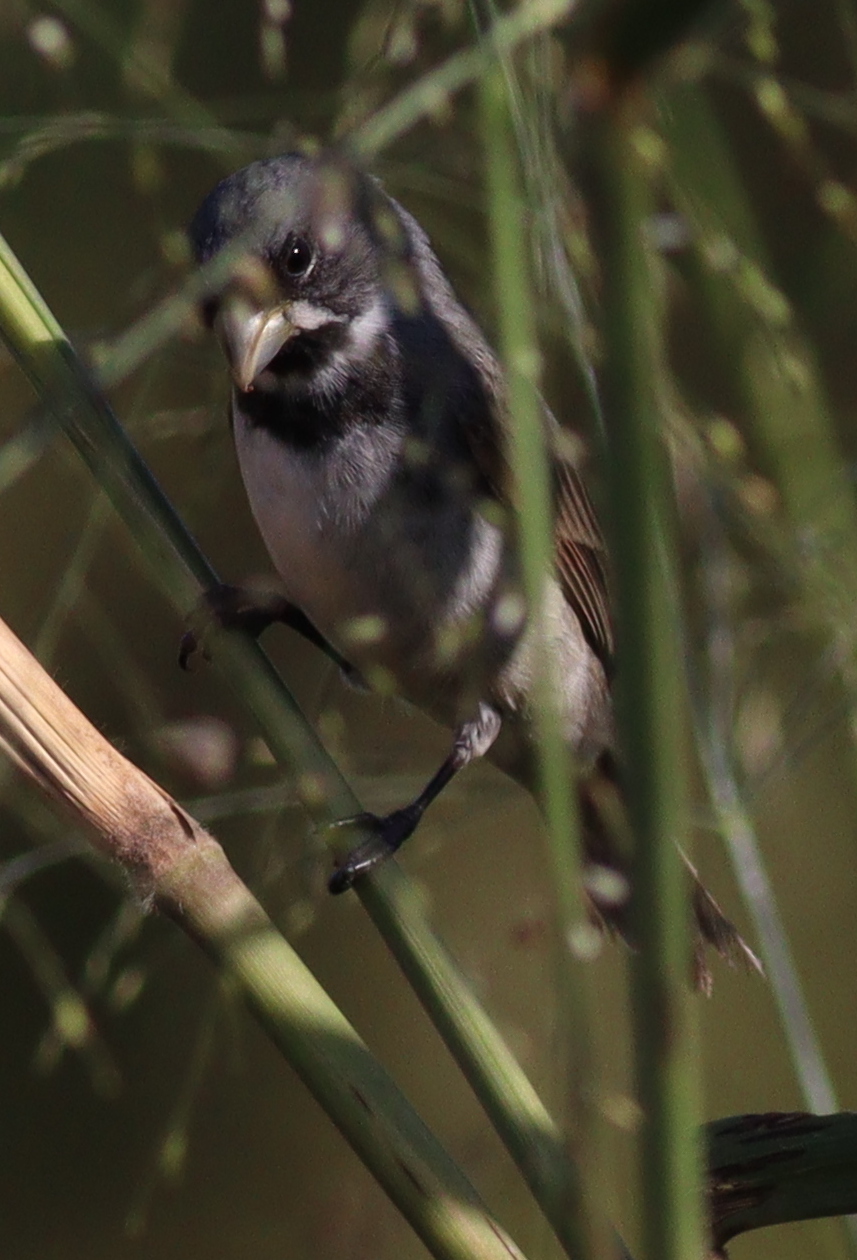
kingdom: Animalia
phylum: Chordata
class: Aves
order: Passeriformes
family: Thraupidae
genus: Sporophila
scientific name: Sporophila caerulescens
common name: Double-collared seedeater
